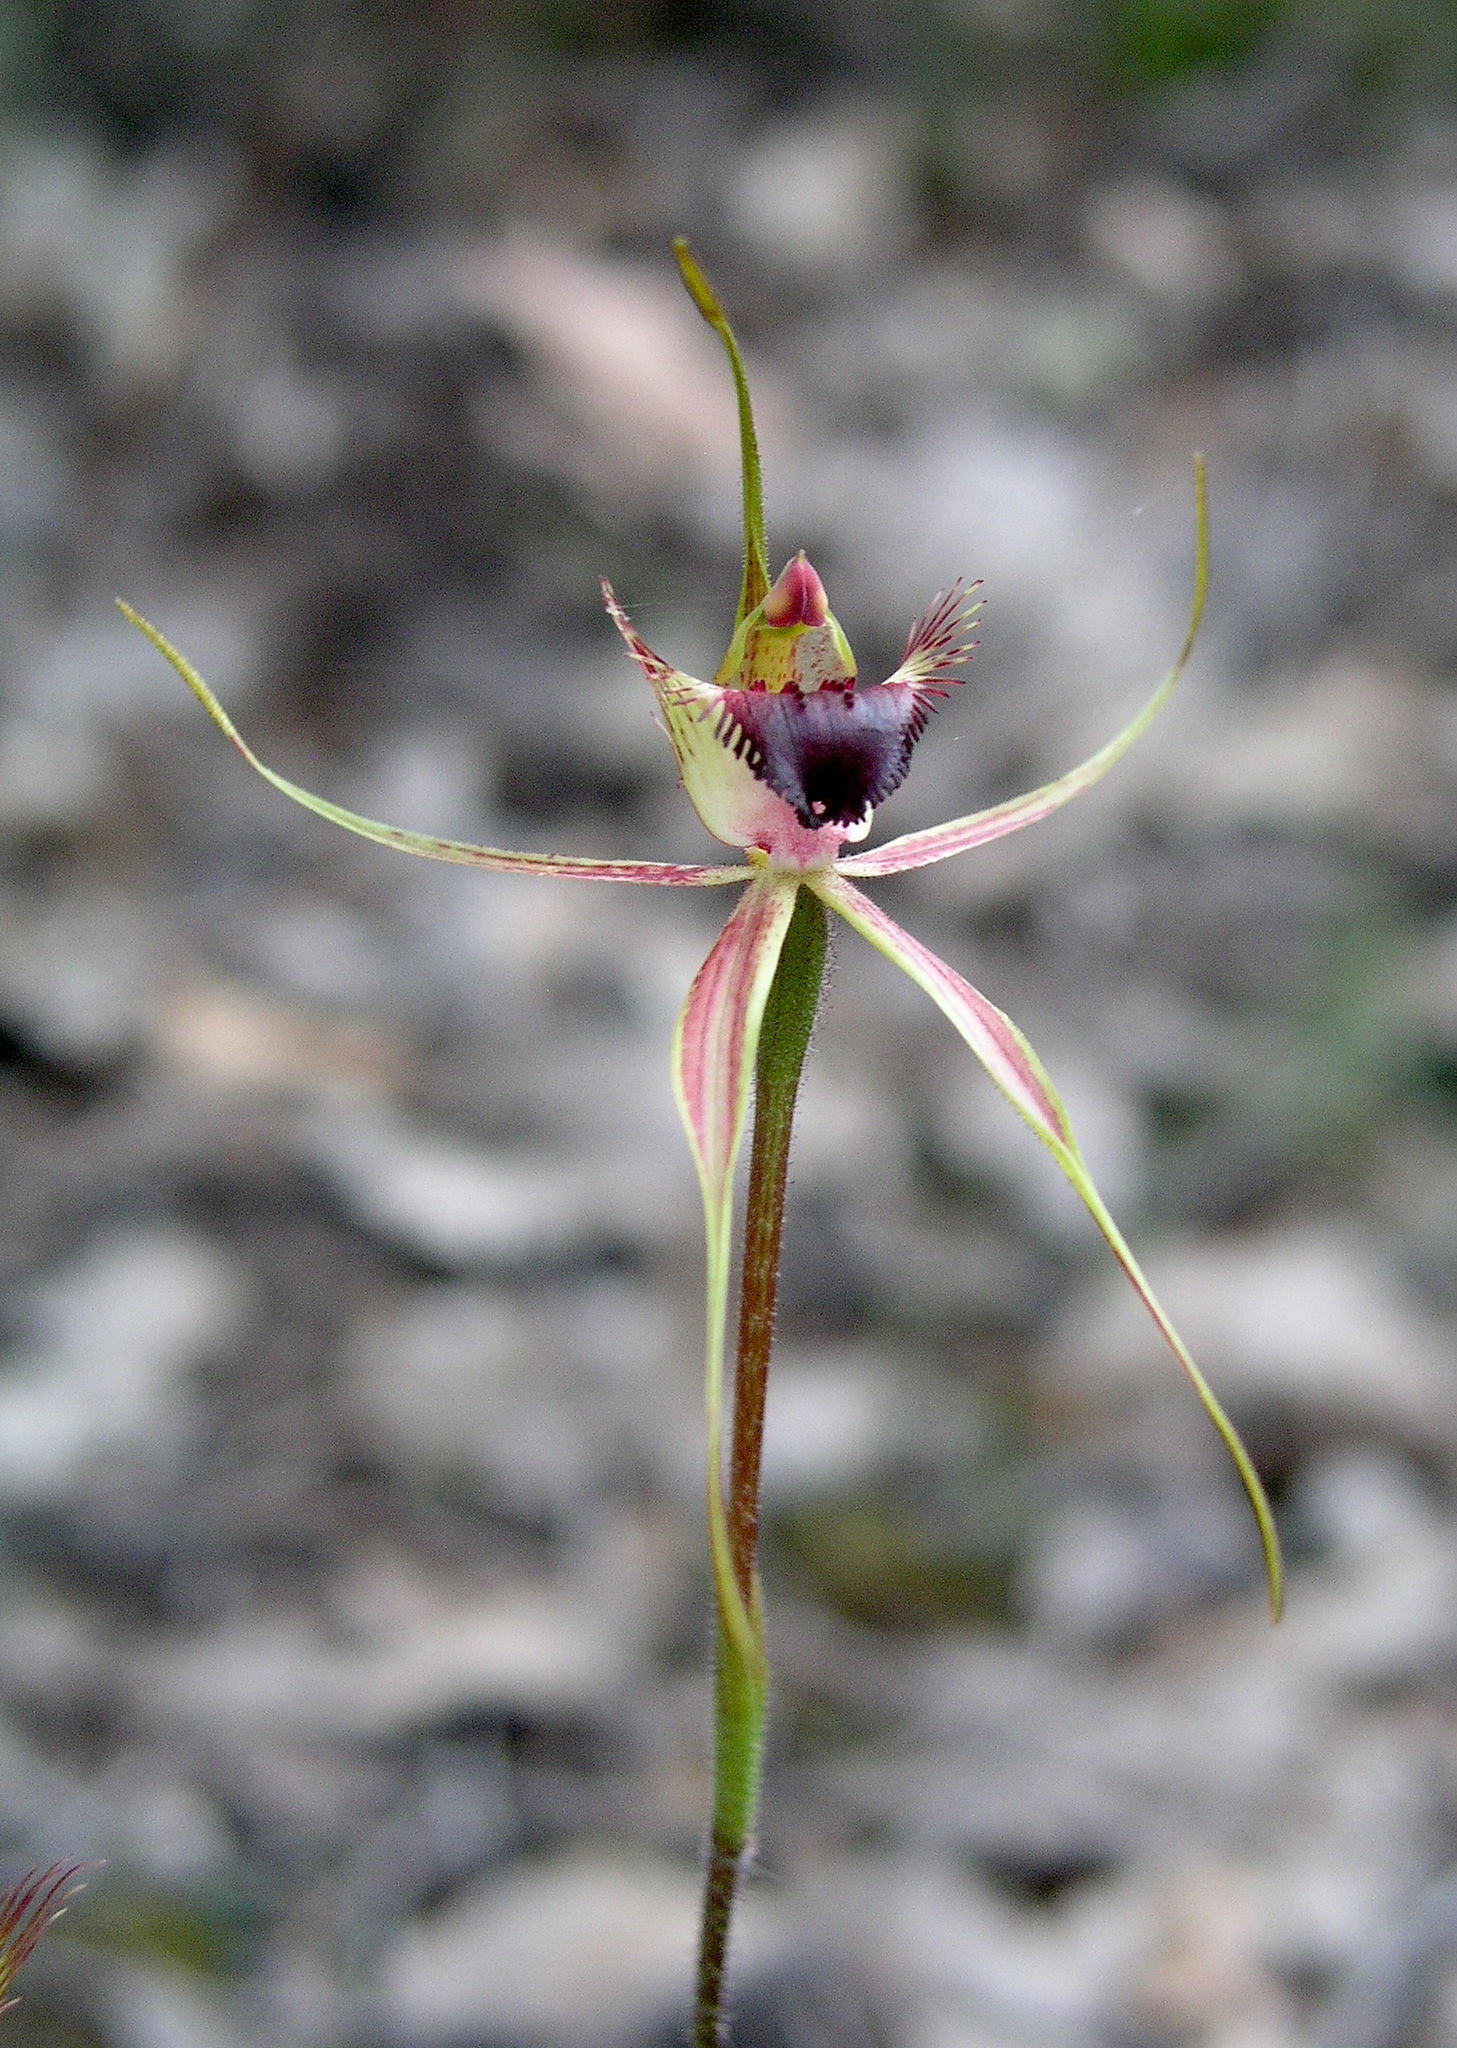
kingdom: Plantae
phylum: Tracheophyta
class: Liliopsida
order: Asparagales
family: Orchidaceae
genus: Caladenia
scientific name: Caladenia brownii
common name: Kari spider orchid
